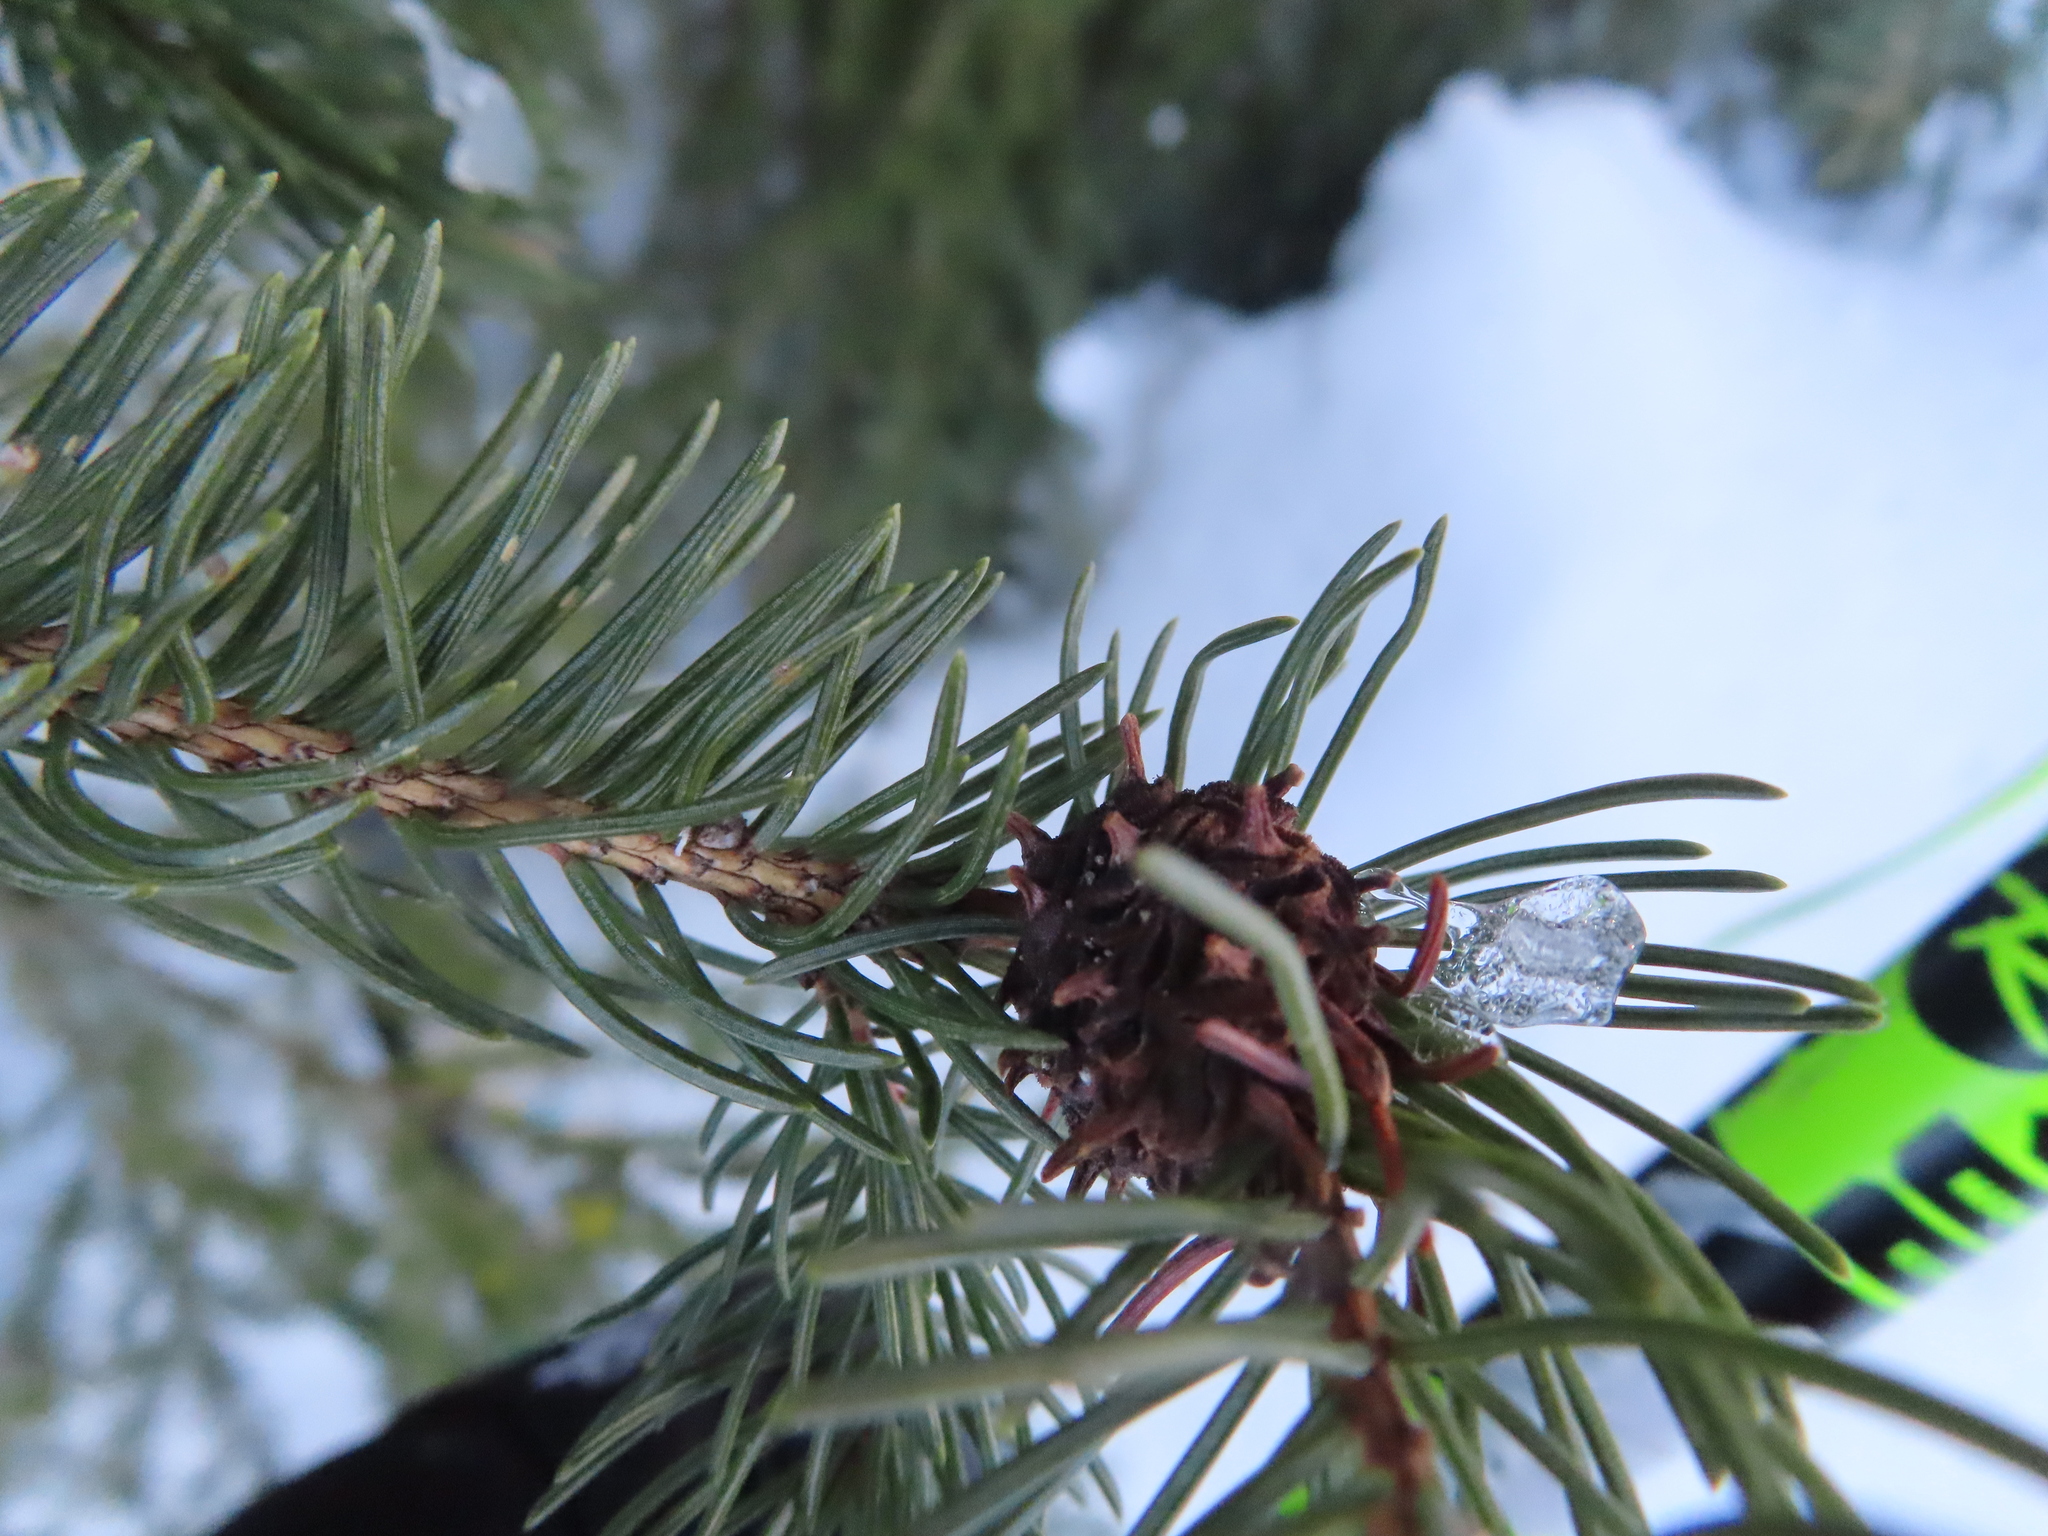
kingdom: Animalia
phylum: Arthropoda
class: Insecta
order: Hemiptera
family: Adelgidae
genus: Adelges
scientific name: Adelges abietis
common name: Eastern spruce gall adelgid
